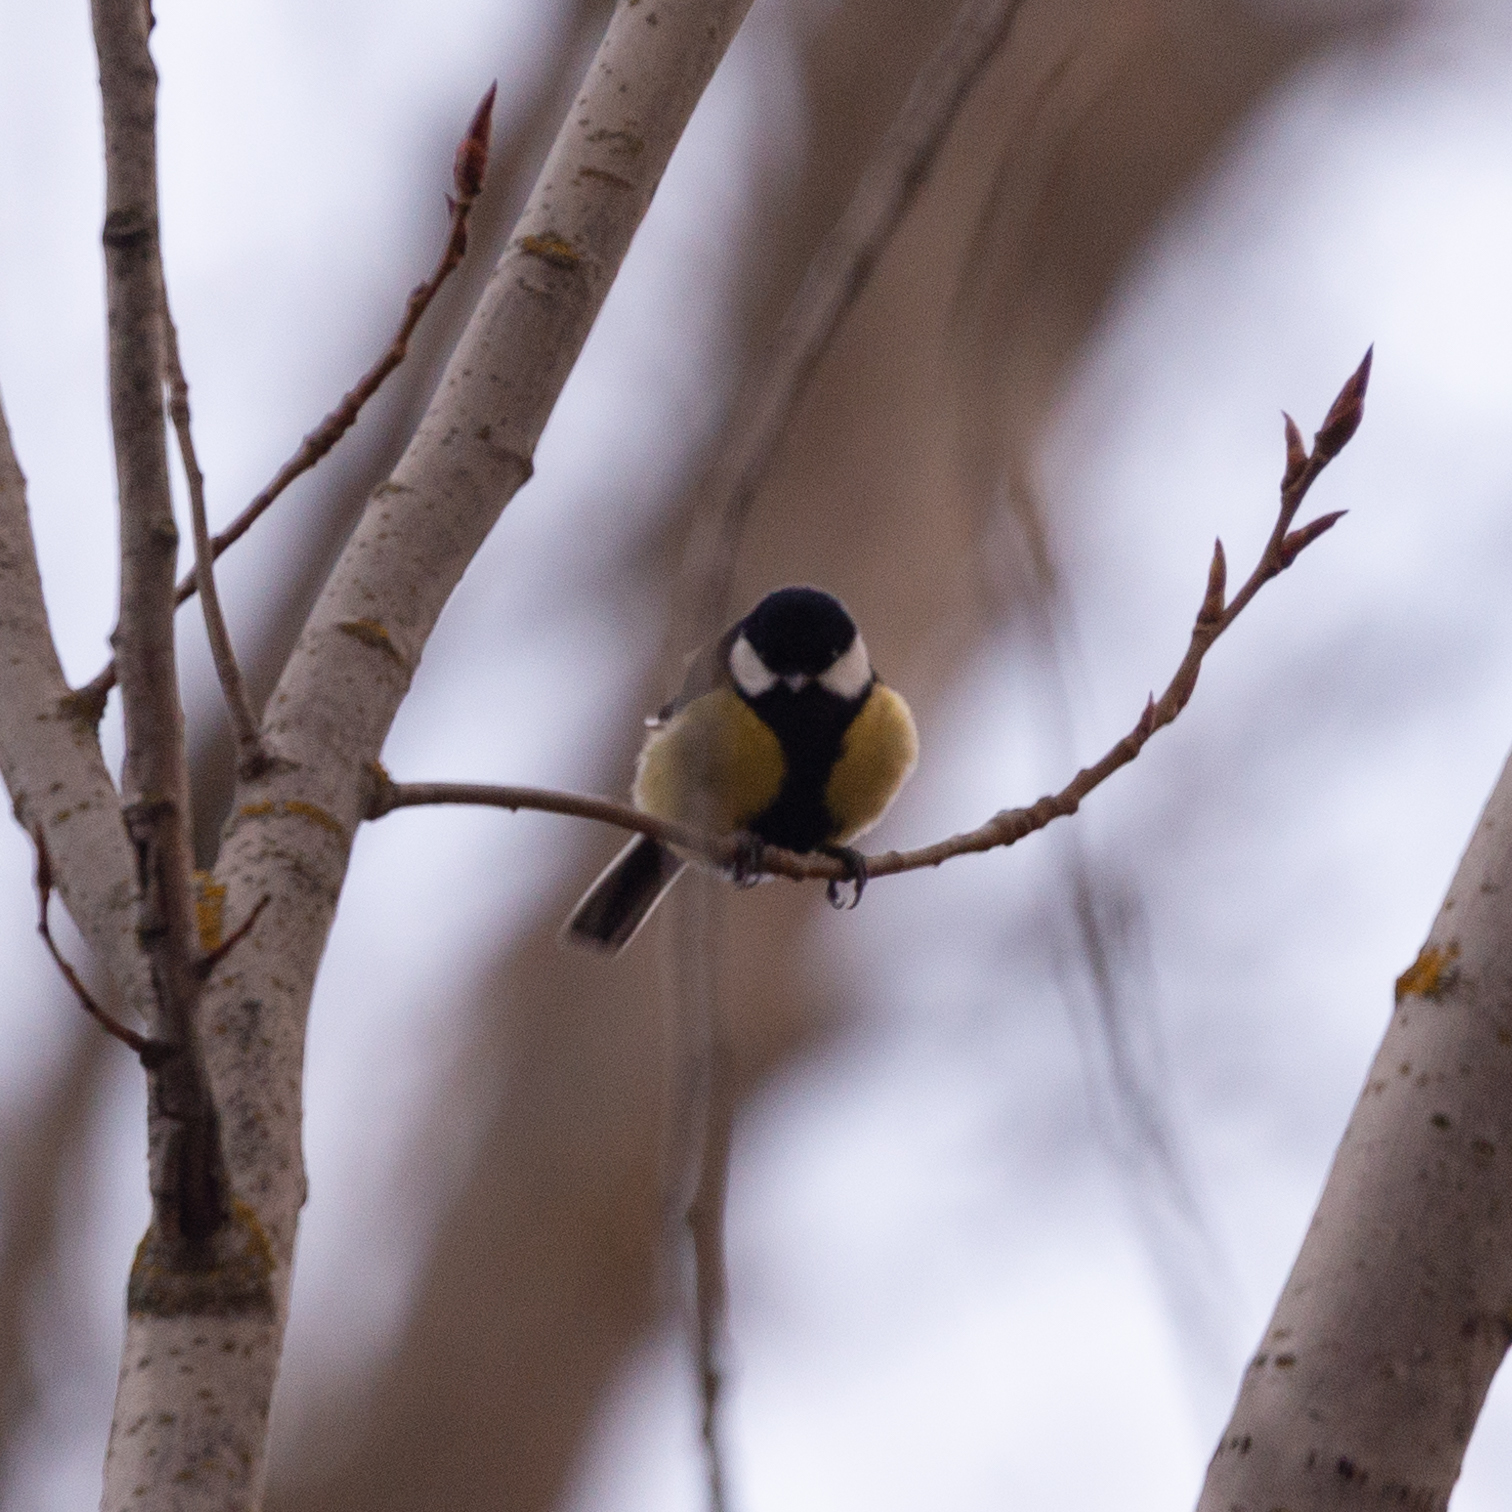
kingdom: Animalia
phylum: Chordata
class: Aves
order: Passeriformes
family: Paridae
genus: Parus
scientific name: Parus major
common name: Great tit
